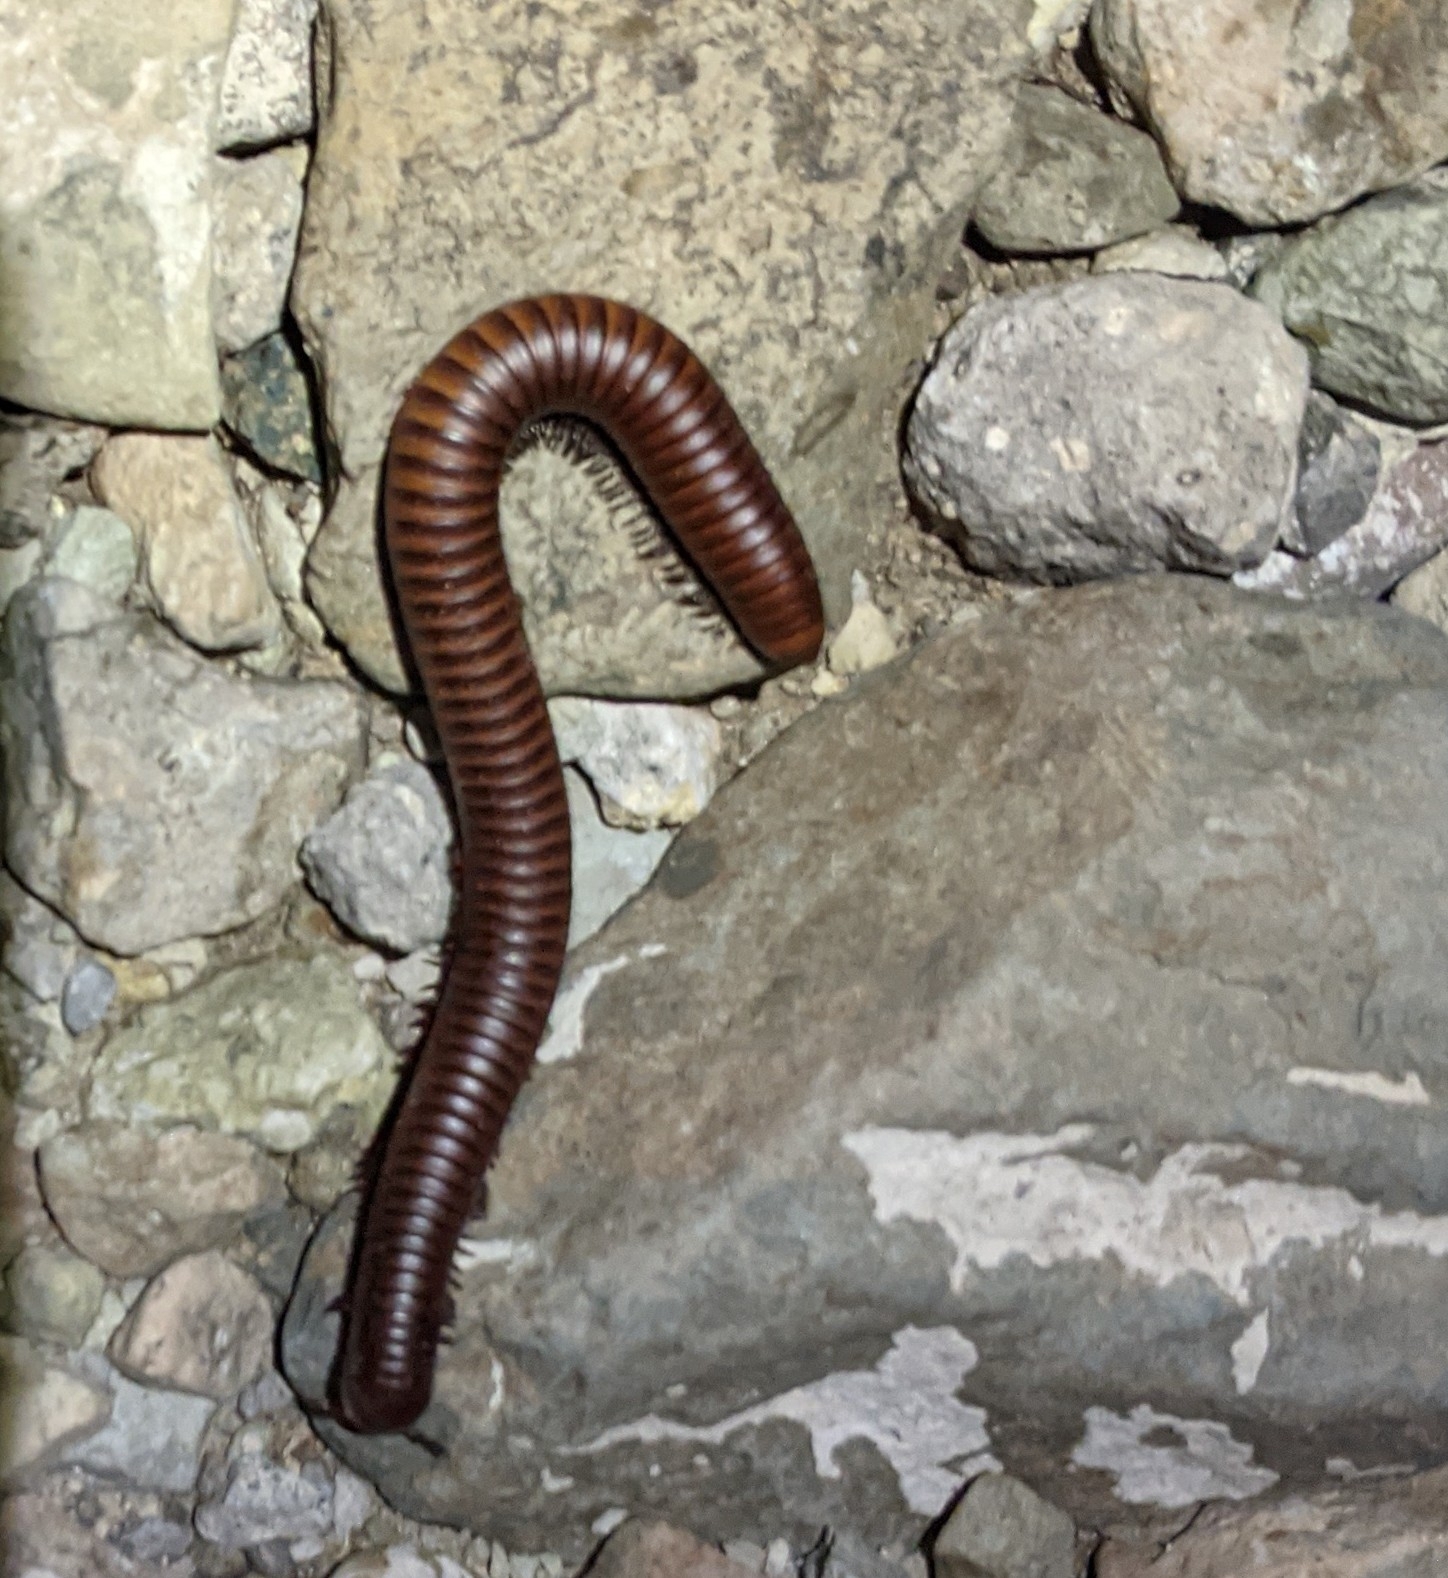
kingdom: Animalia
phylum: Arthropoda
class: Diplopoda
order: Spirostreptida
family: Spirostreptidae
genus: Orthoporus
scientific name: Orthoporus ornatus
